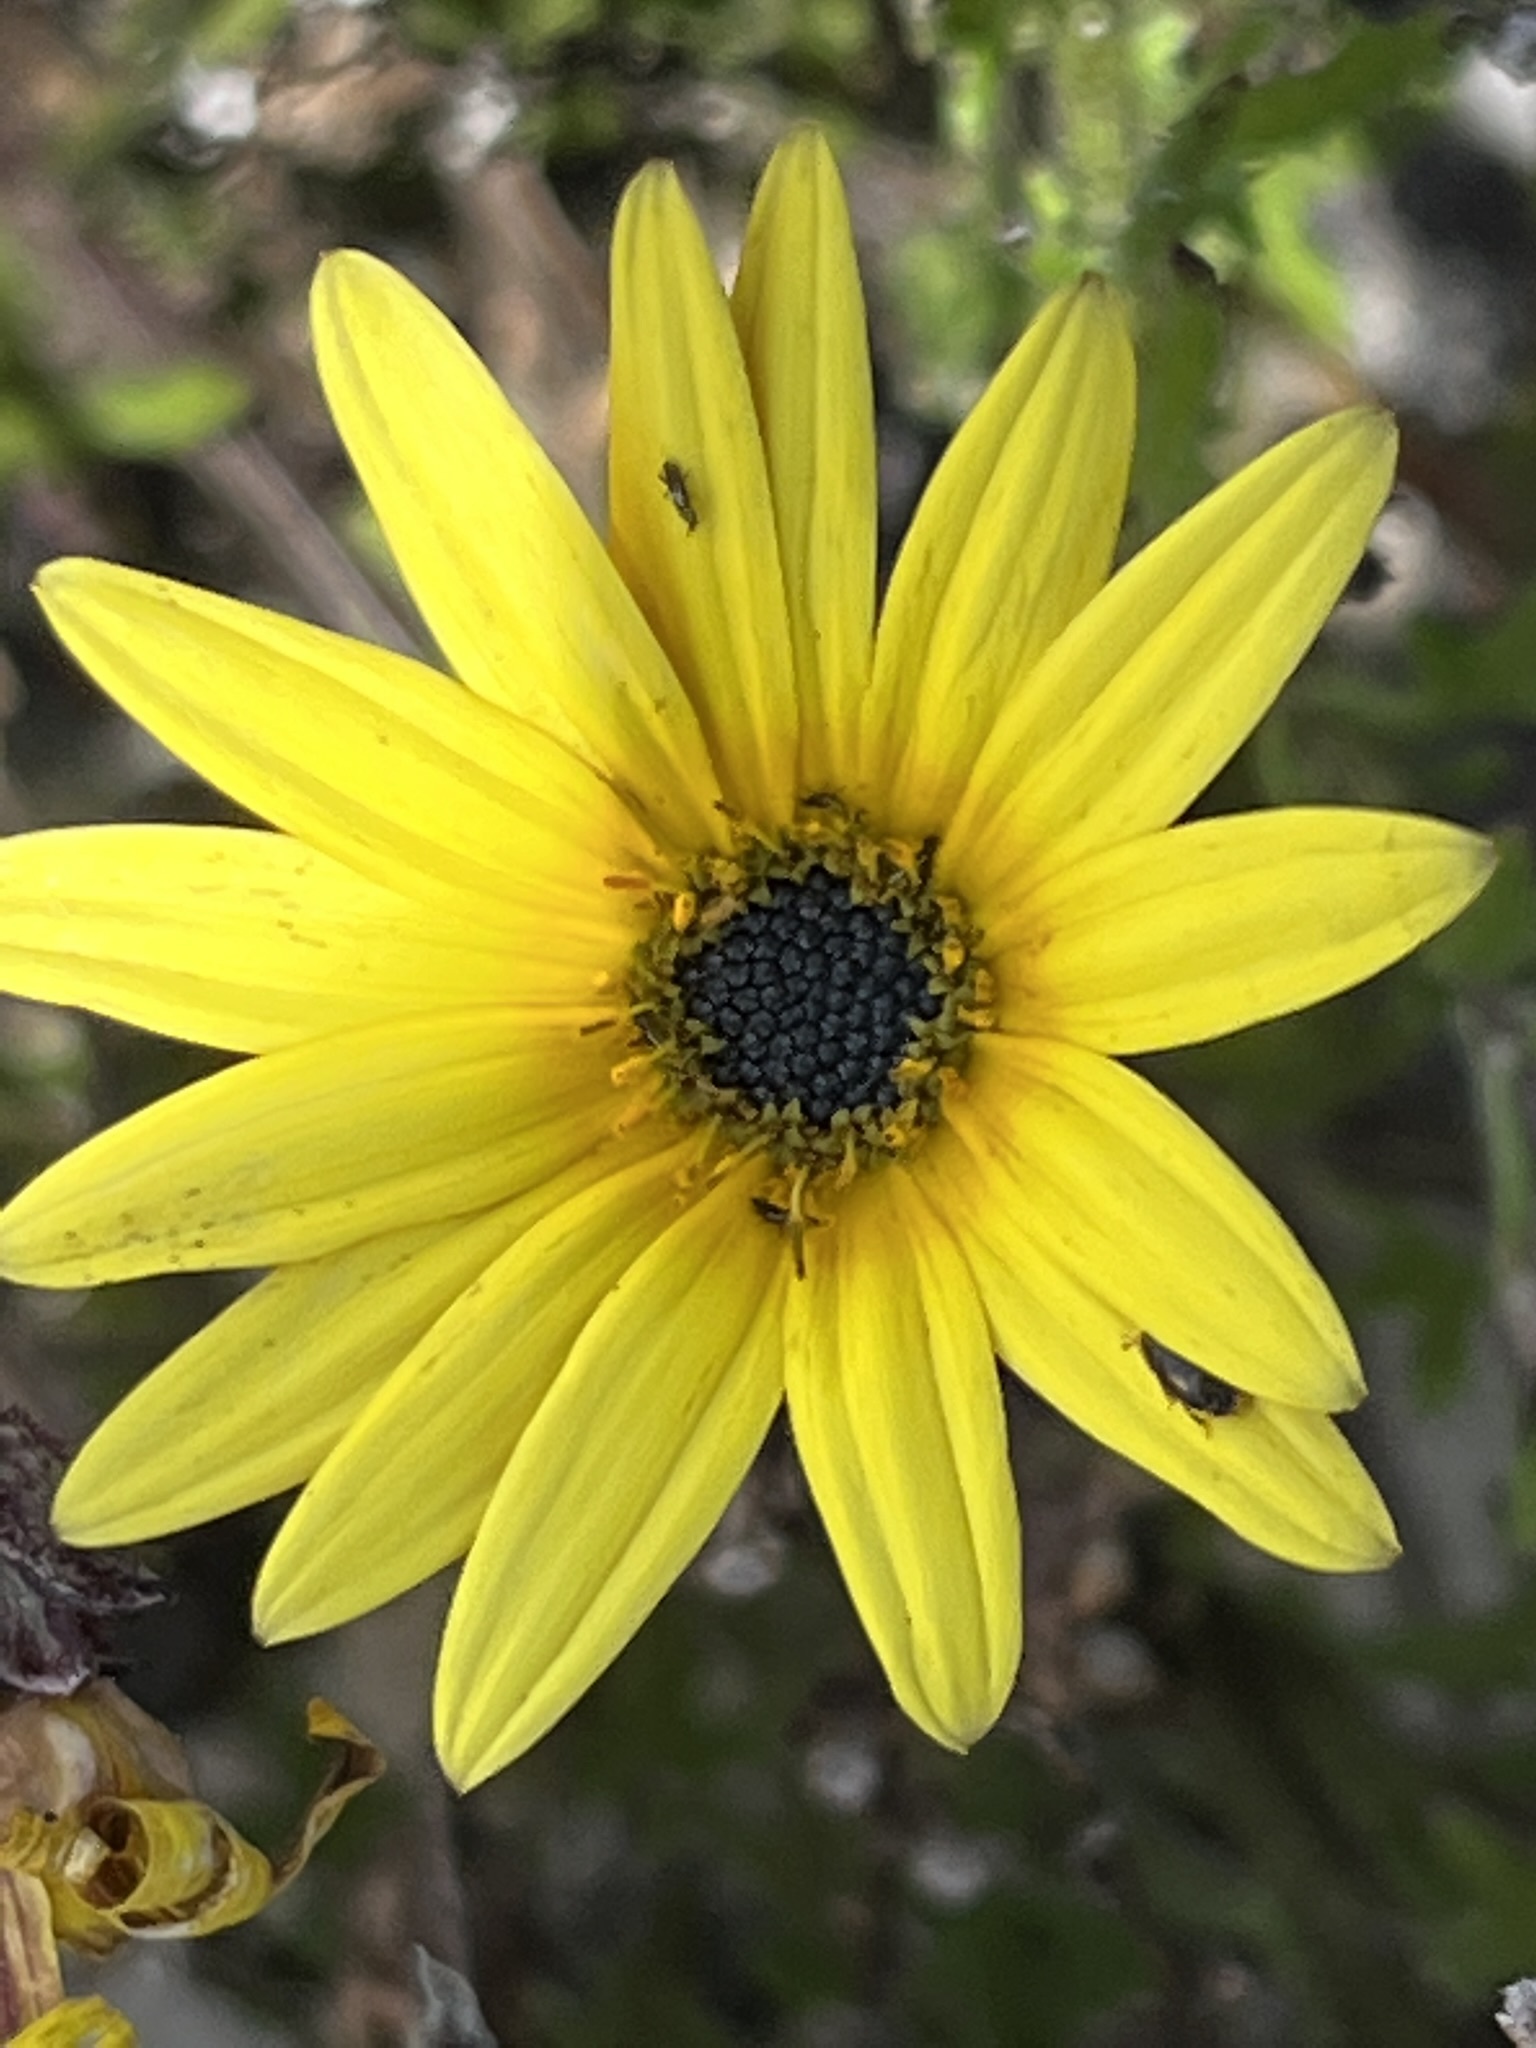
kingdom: Plantae
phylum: Tracheophyta
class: Magnoliopsida
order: Asterales
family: Asteraceae
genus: Arctotis
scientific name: Arctotis scabra
